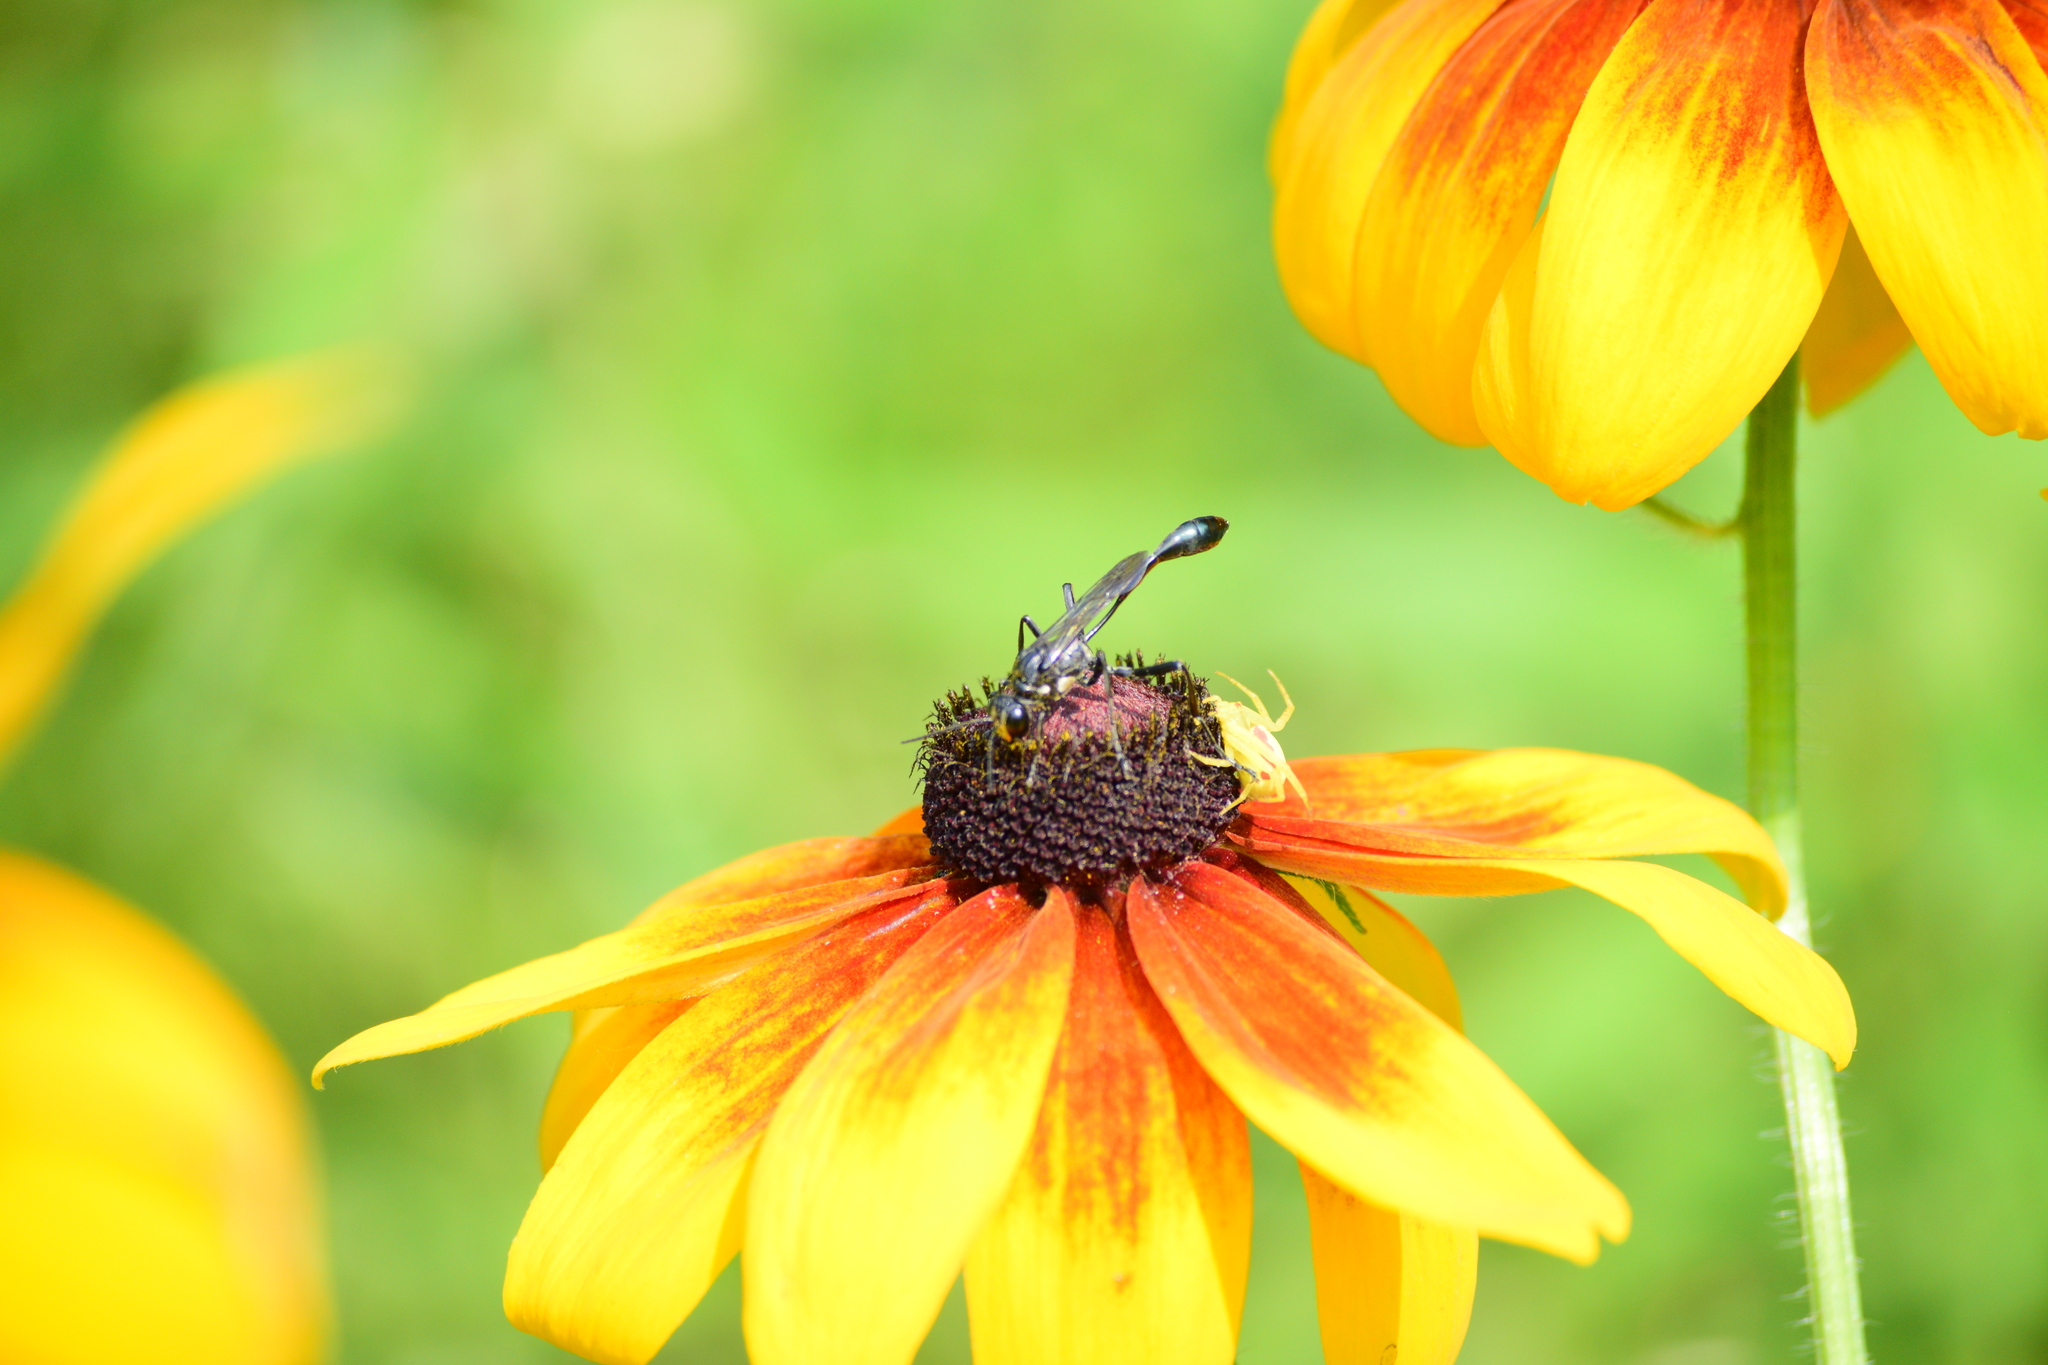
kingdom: Animalia
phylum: Arthropoda
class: Insecta
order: Hymenoptera
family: Sphecidae
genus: Eremnophila
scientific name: Eremnophila aureonotata
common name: Gold-marked thread-waisted wasp
